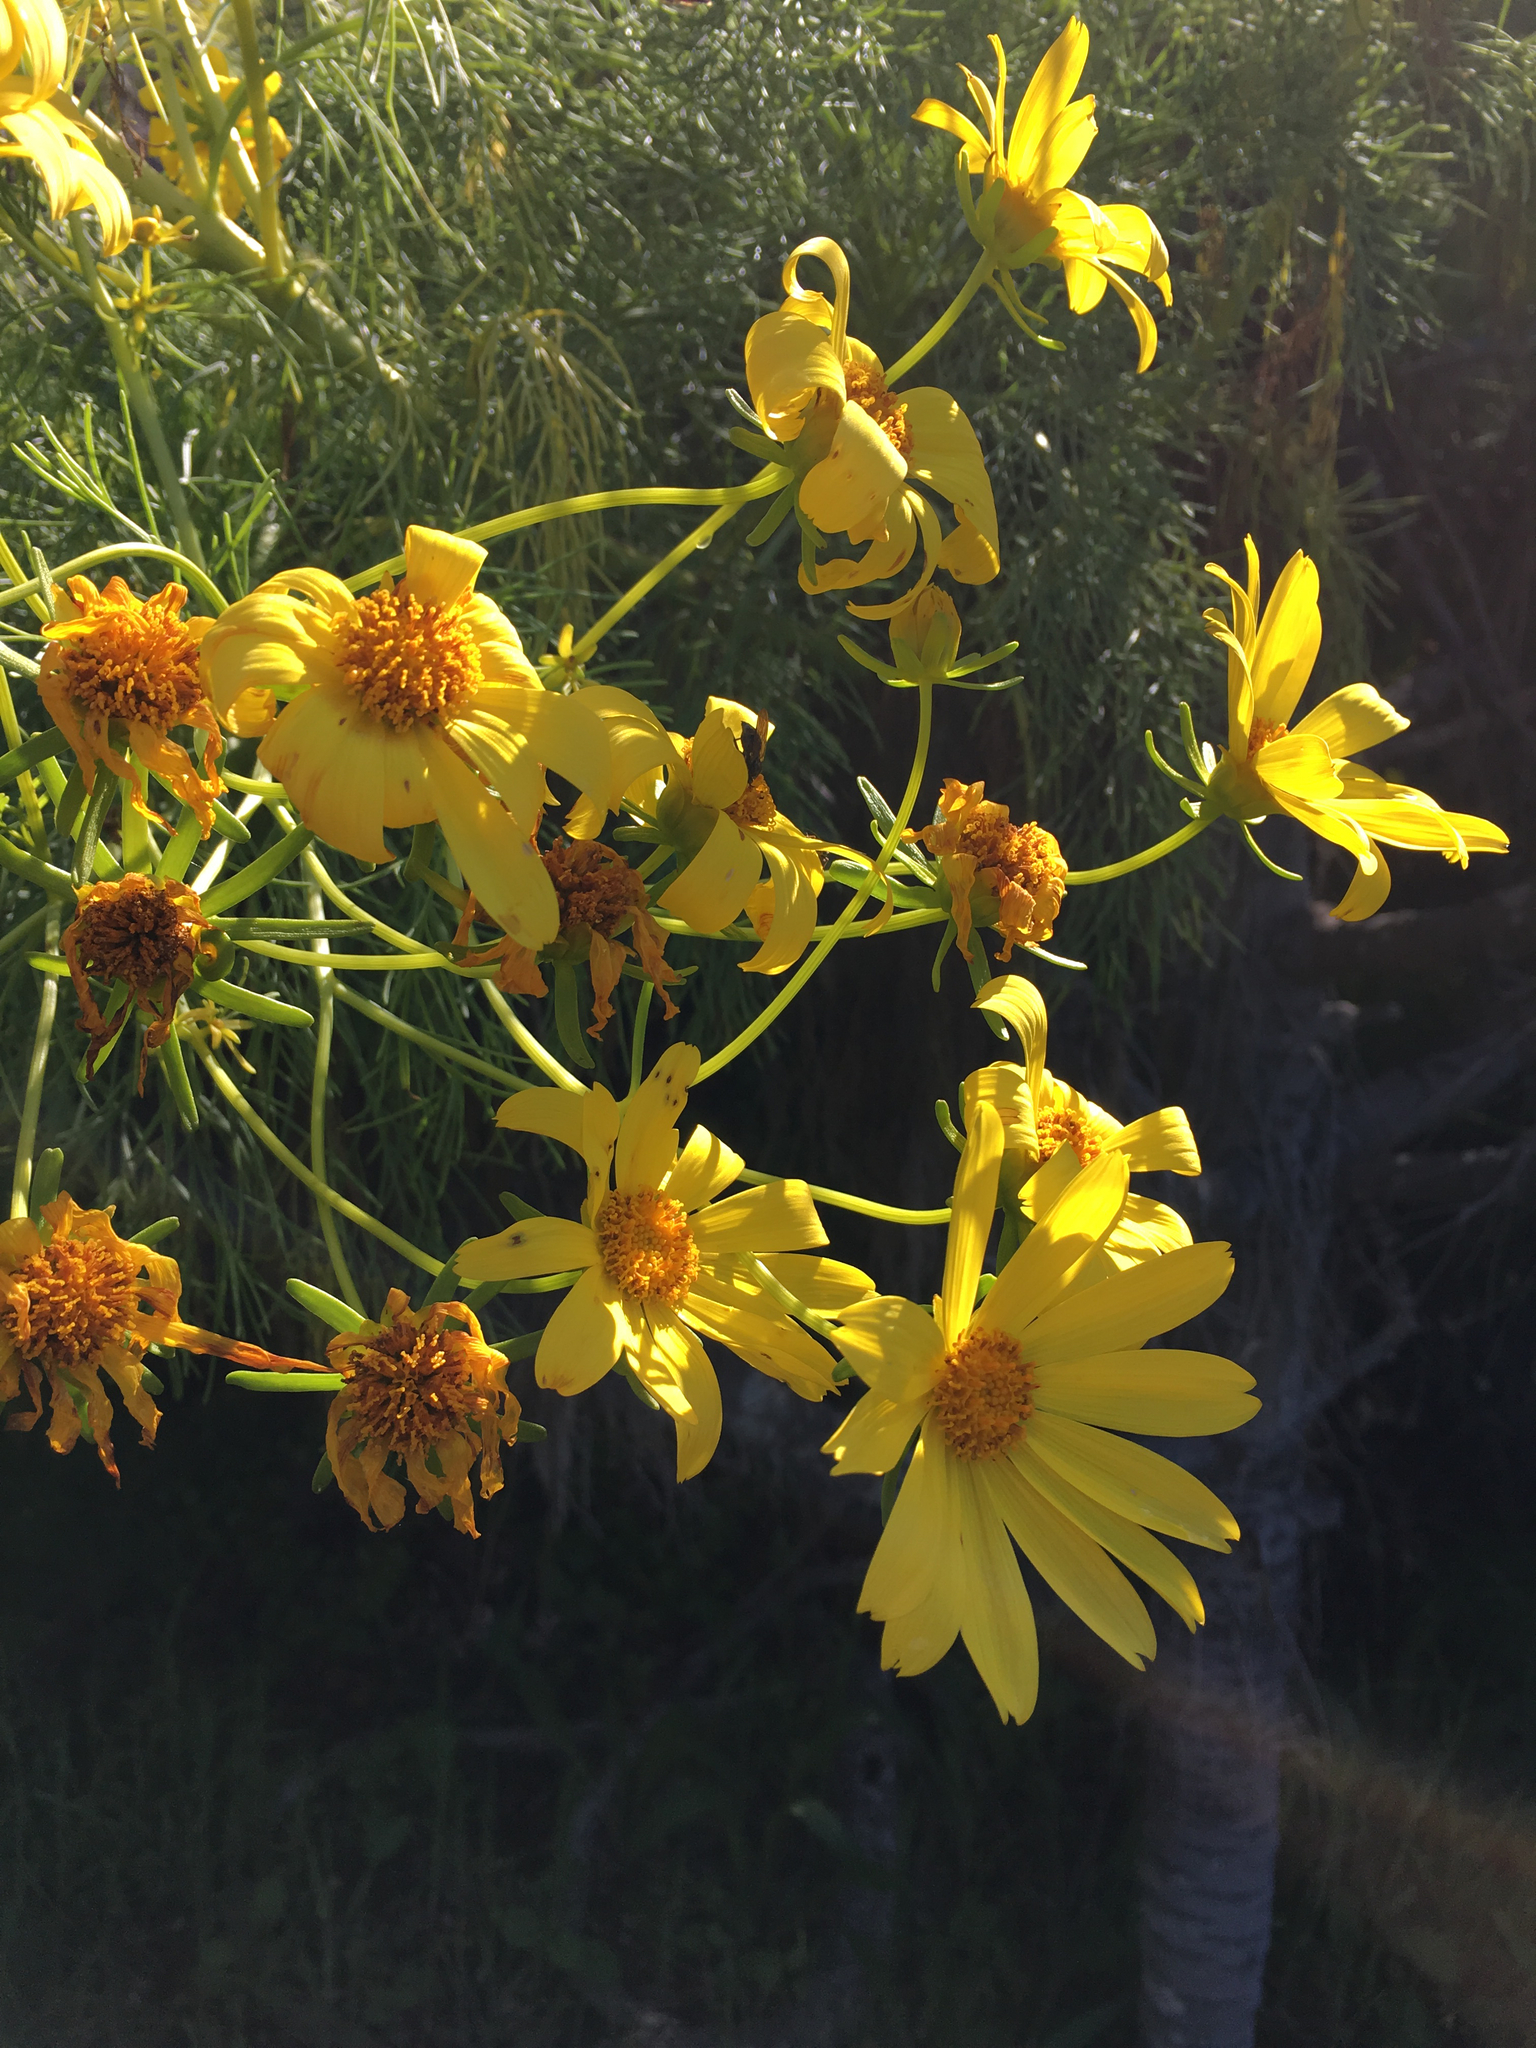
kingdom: Plantae
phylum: Tracheophyta
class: Magnoliopsida
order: Asterales
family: Asteraceae
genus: Coreopsis
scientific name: Coreopsis gigantea
